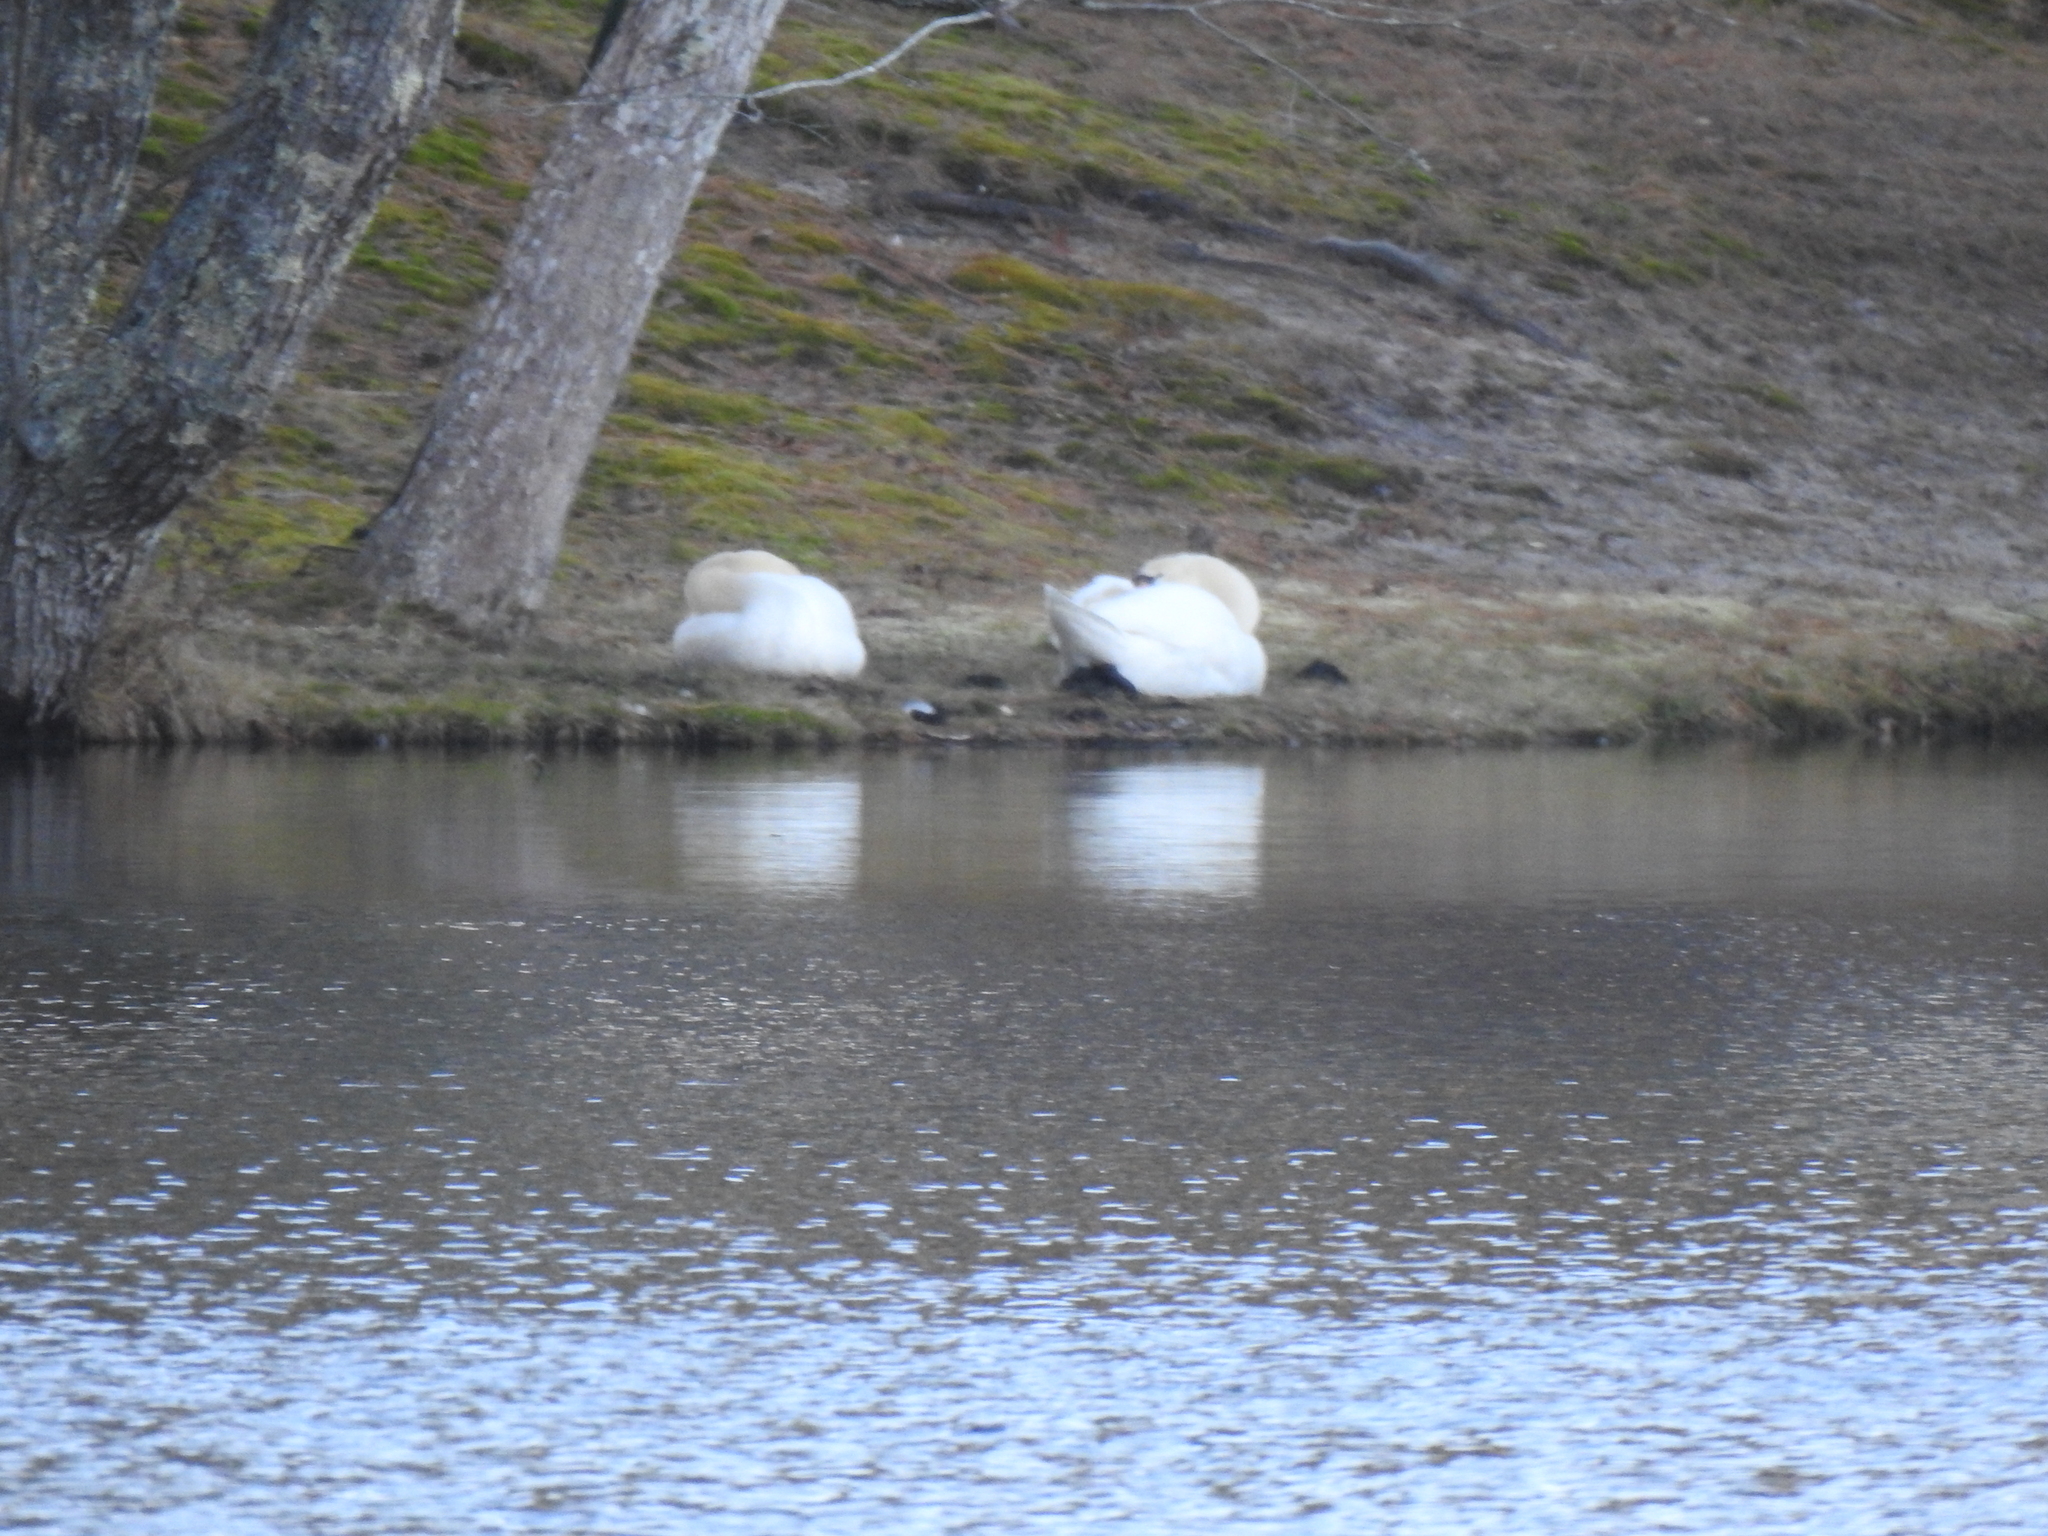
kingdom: Animalia
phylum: Chordata
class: Aves
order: Anseriformes
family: Anatidae
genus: Cygnus
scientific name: Cygnus olor
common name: Mute swan
